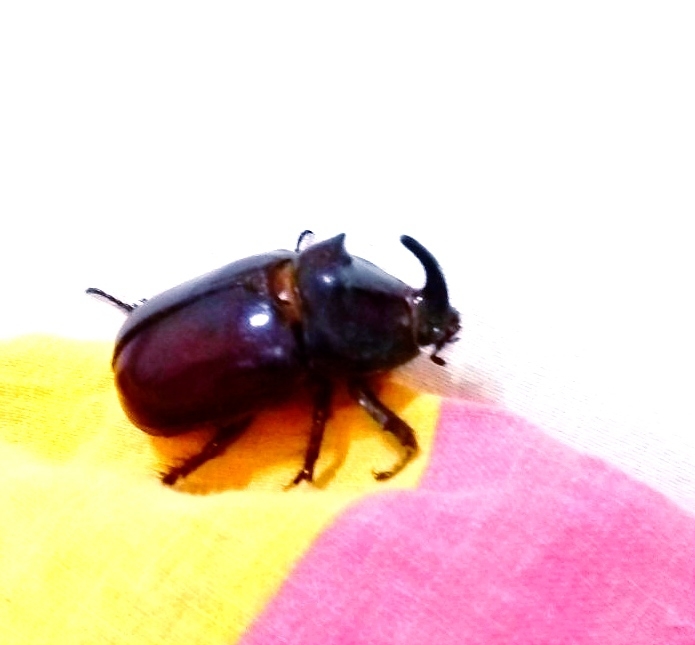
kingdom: Animalia
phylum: Arthropoda
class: Insecta
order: Coleoptera
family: Scarabaeidae
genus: Oryctes
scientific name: Oryctes nasicornis
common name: European rhinoceros beetle
